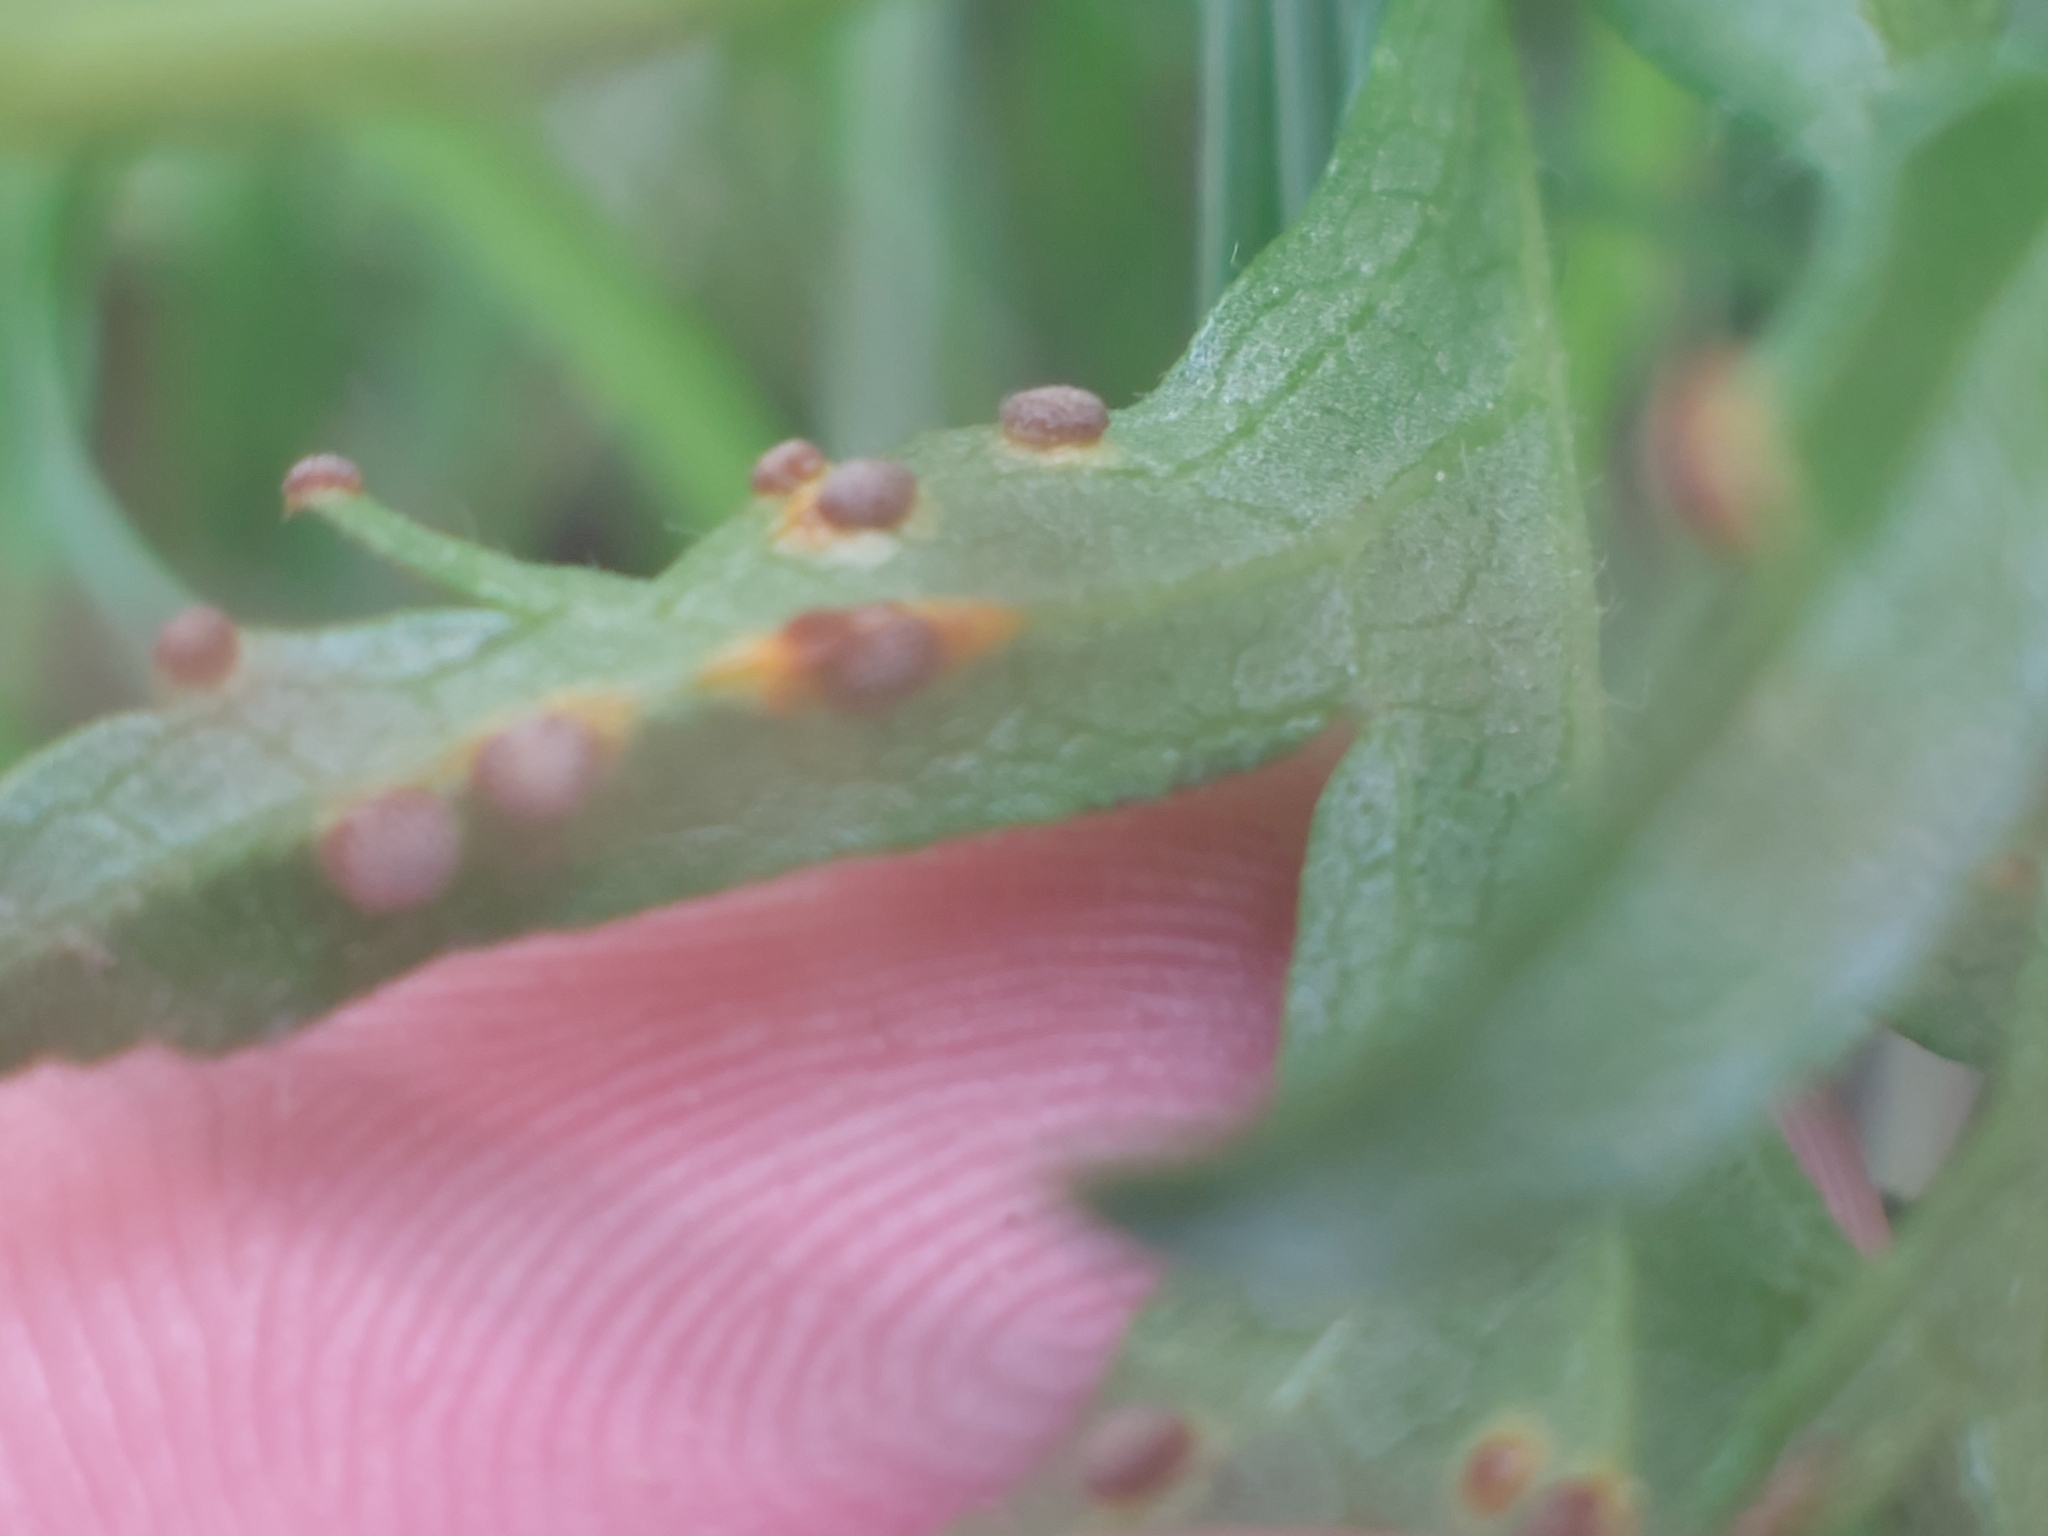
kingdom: Fungi
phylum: Basidiomycota
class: Pucciniomycetes
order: Pucciniales
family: Pucciniaceae
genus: Puccinia
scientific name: Puccinia malvacearum
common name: Hollyhock rust
